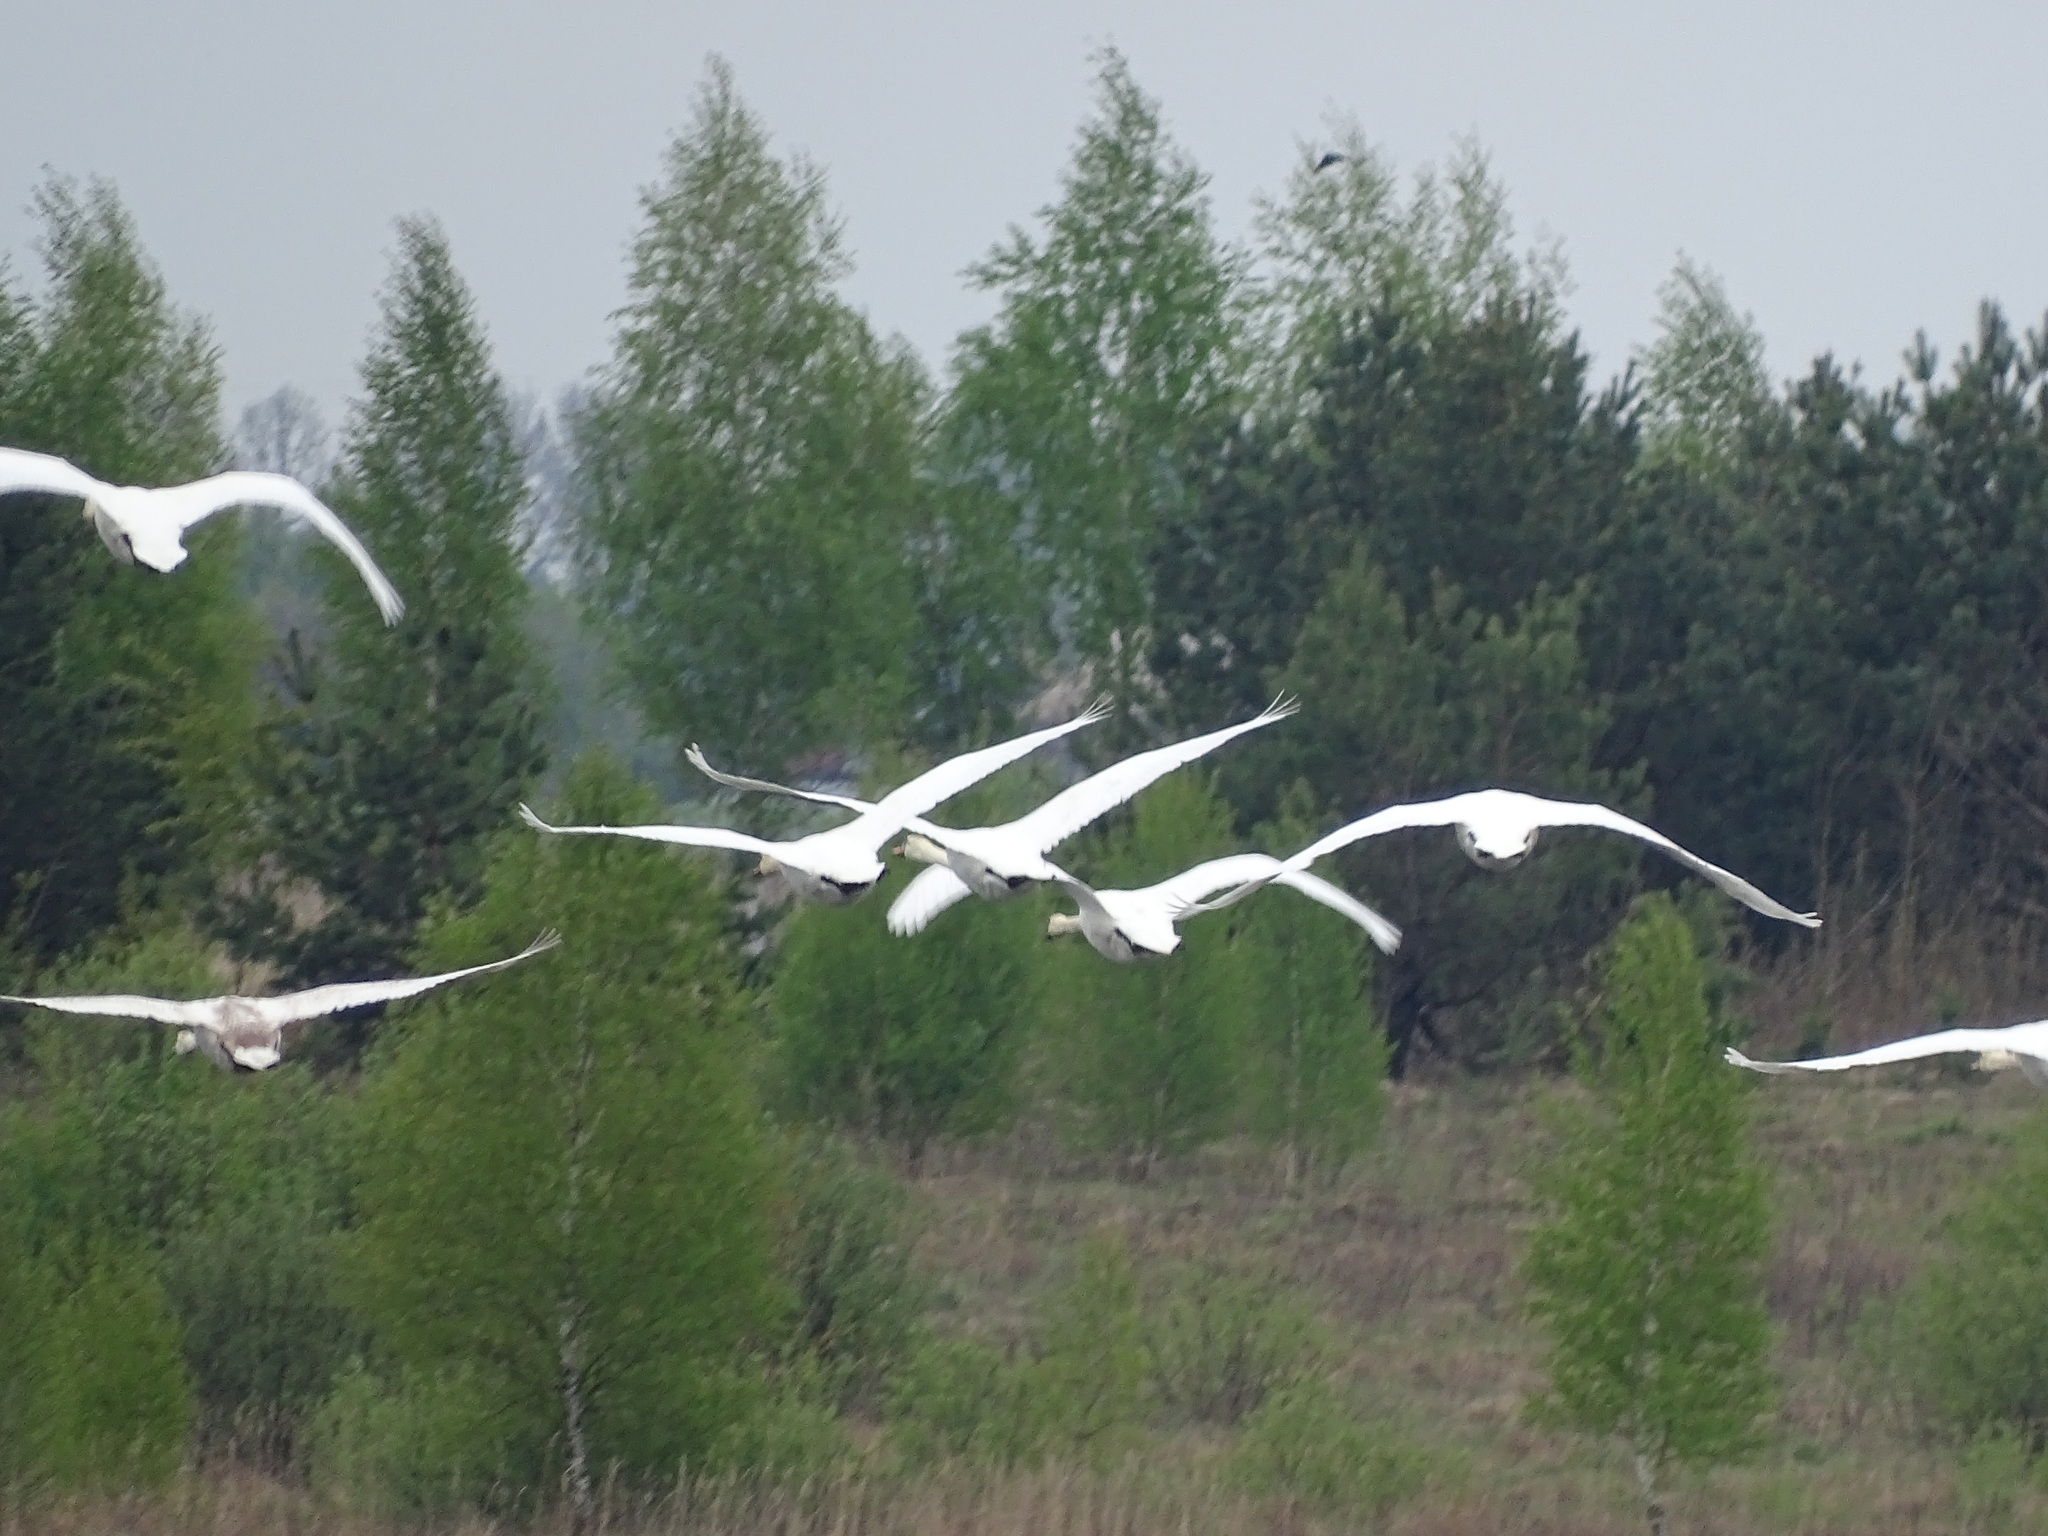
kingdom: Animalia
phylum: Chordata
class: Aves
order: Anseriformes
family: Anatidae
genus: Cygnus
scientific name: Cygnus olor
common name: Mute swan
